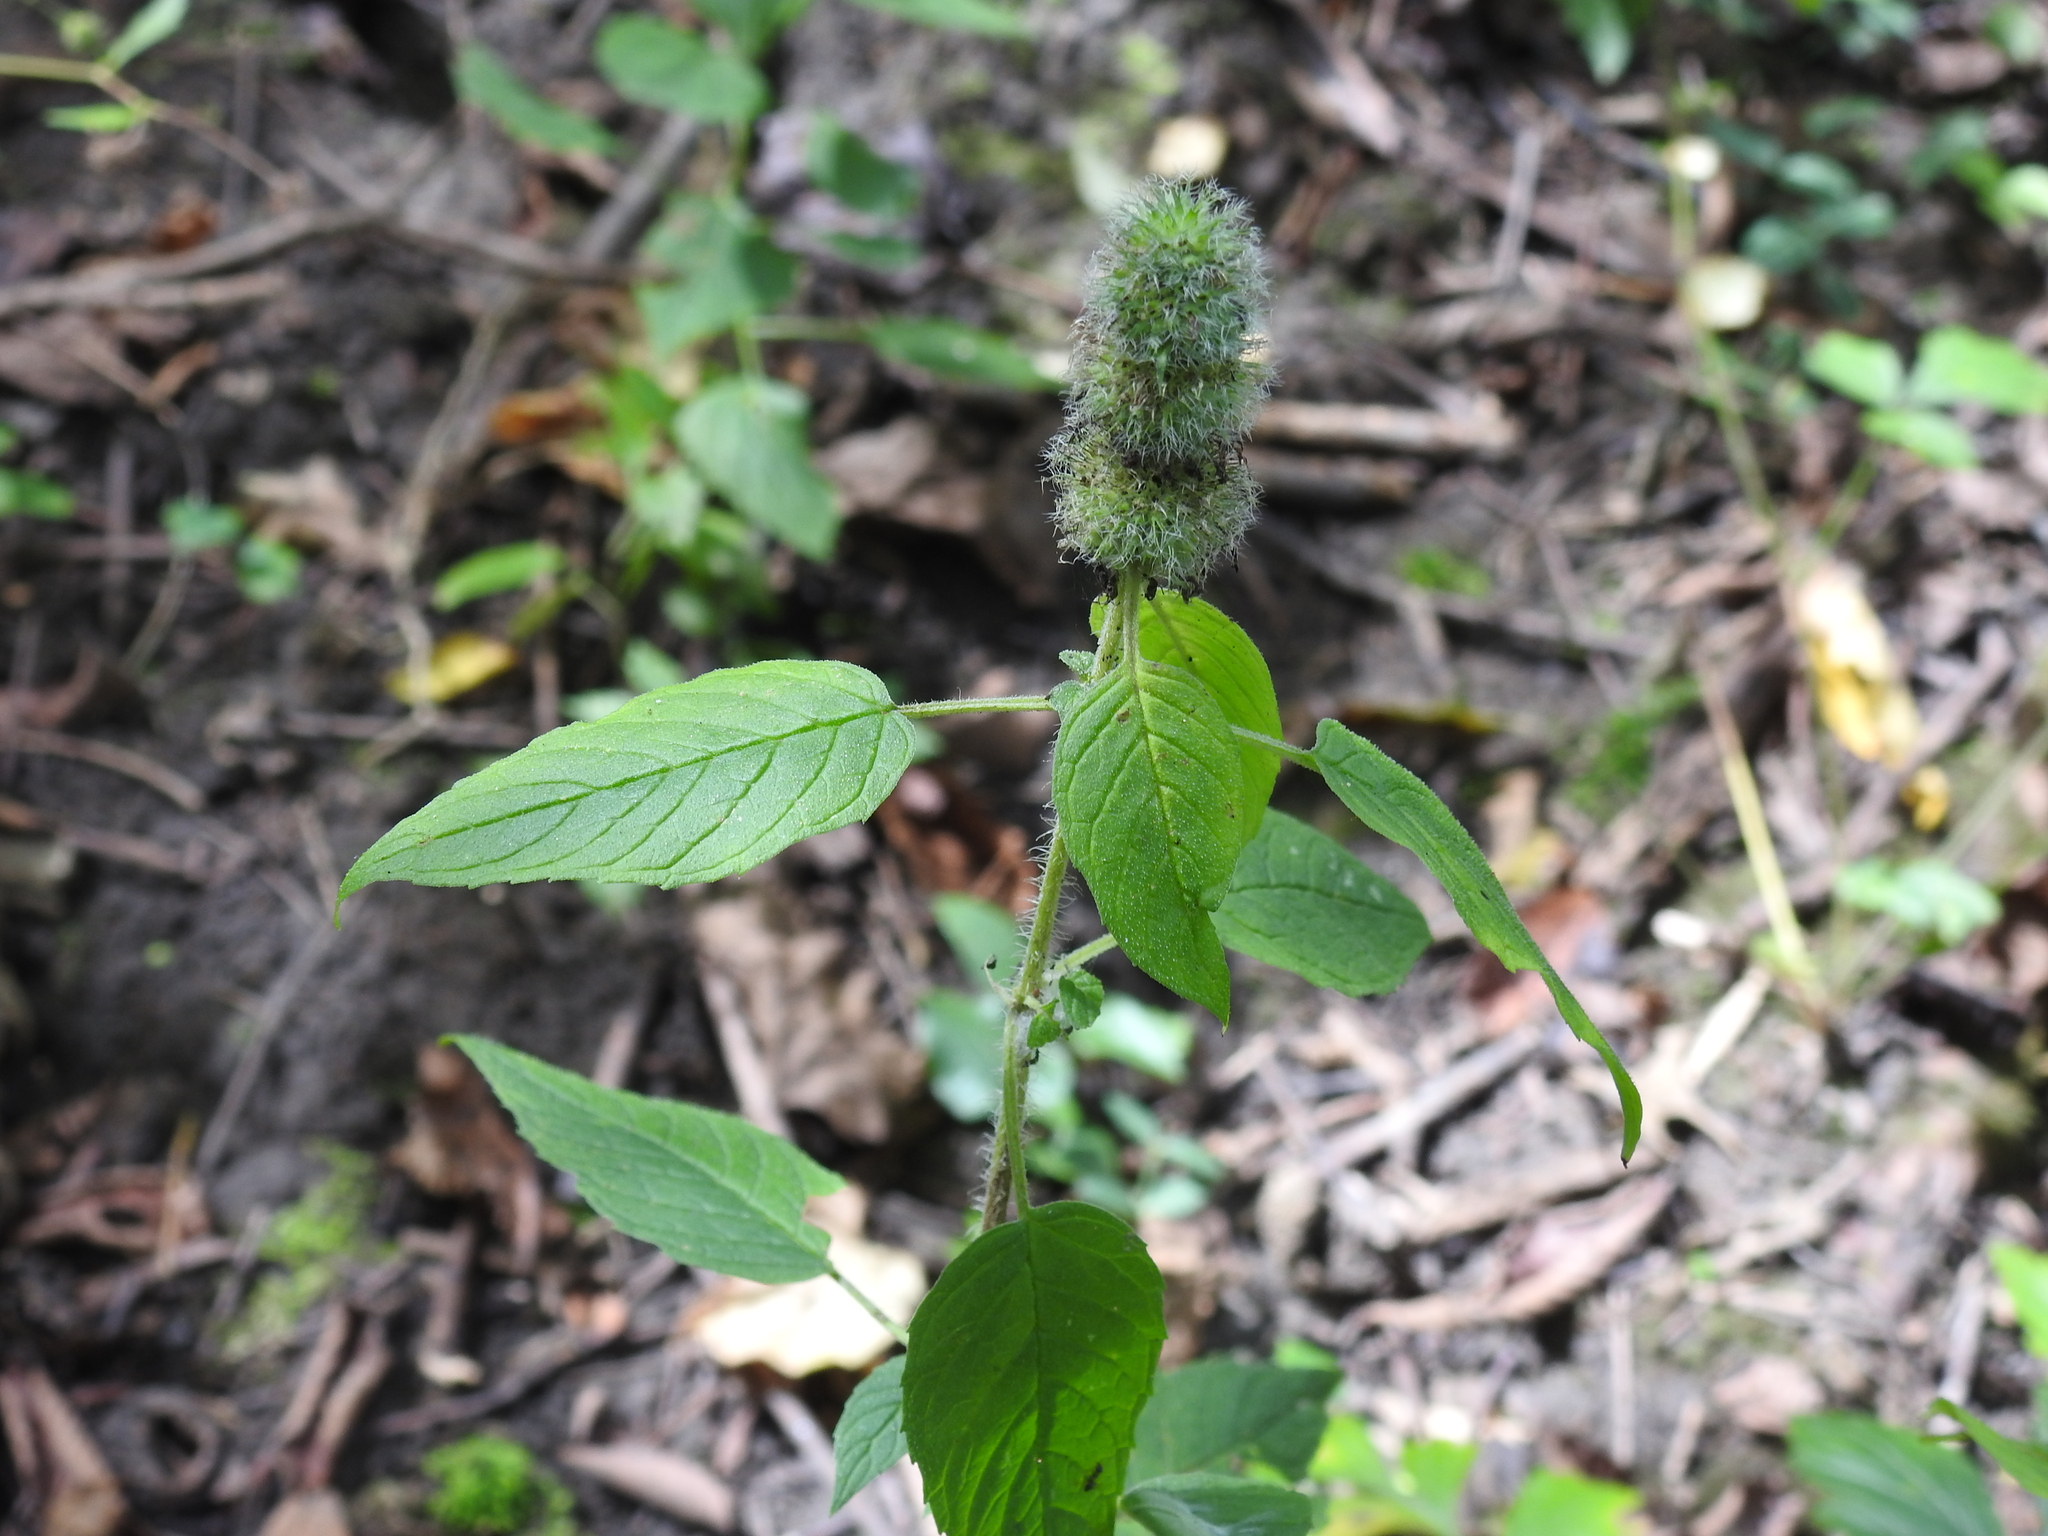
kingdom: Plantae
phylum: Tracheophyta
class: Magnoliopsida
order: Lamiales
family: Lamiaceae
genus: Blephilia
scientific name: Blephilia hirsuta
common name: Hairy blephilia
